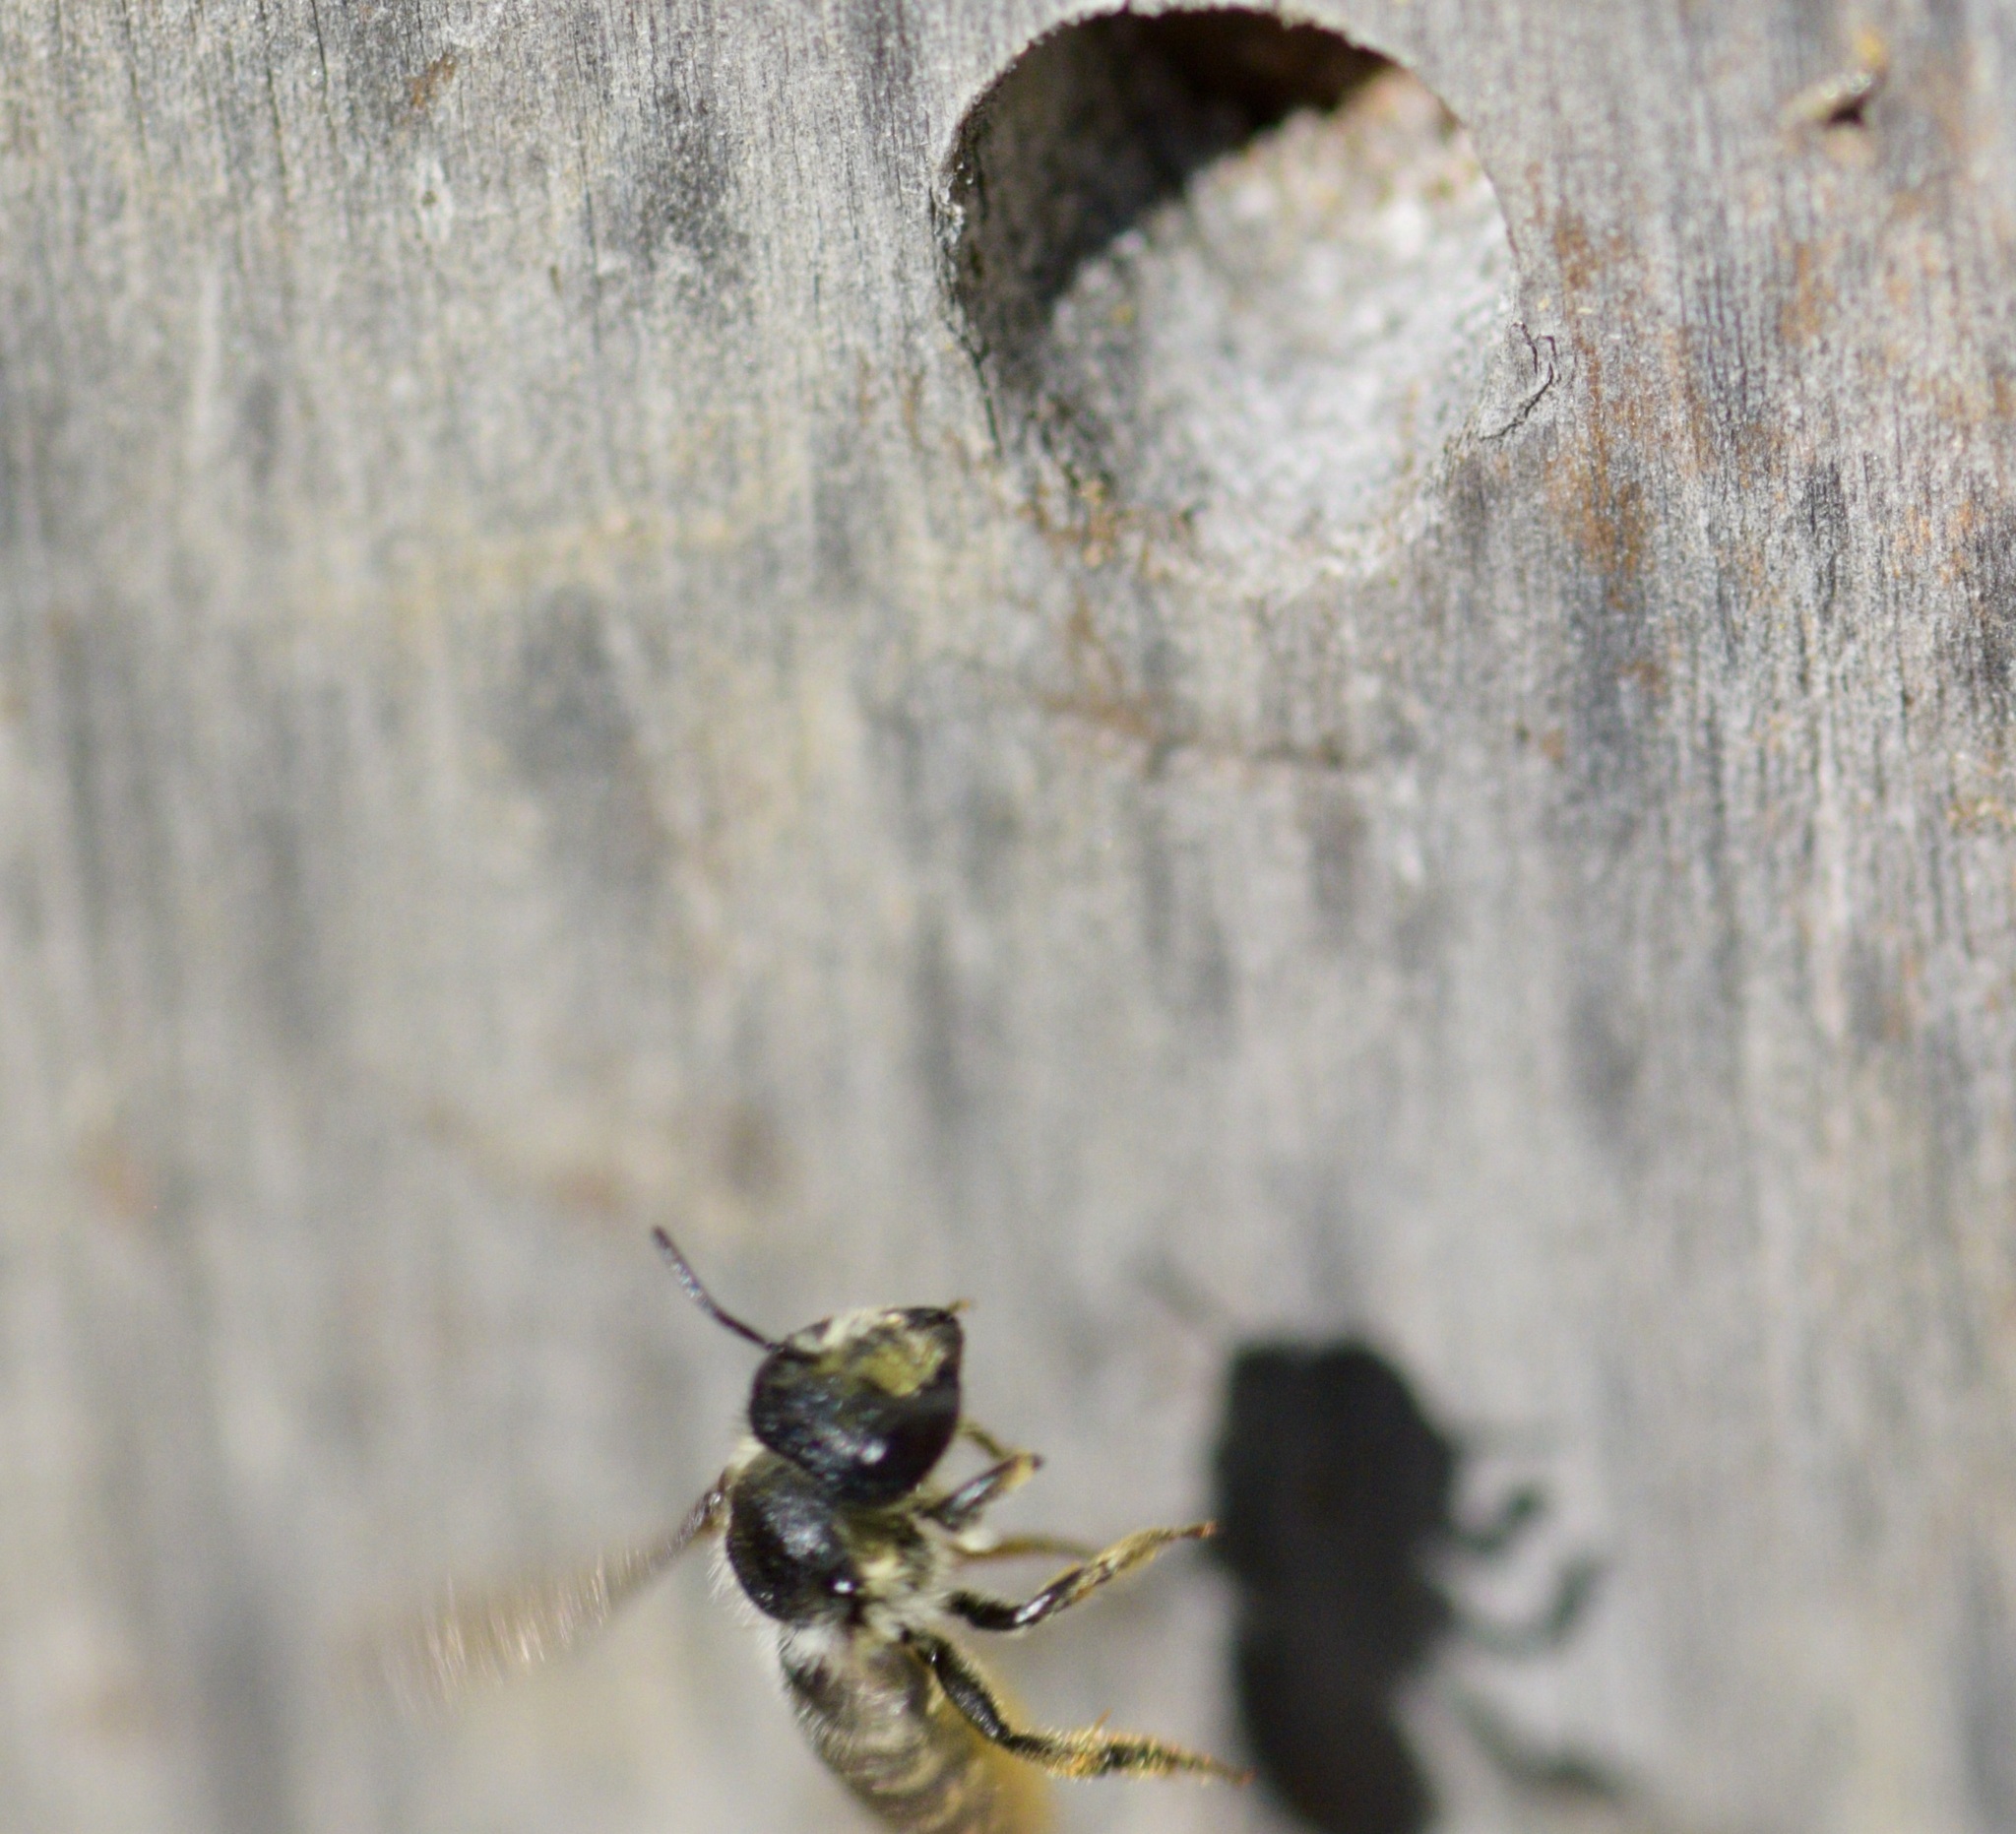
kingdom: Animalia
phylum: Arthropoda
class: Insecta
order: Hymenoptera
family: Megachilidae
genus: Megachile
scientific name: Megachile relativa
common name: Golden-tailed leafcutter
